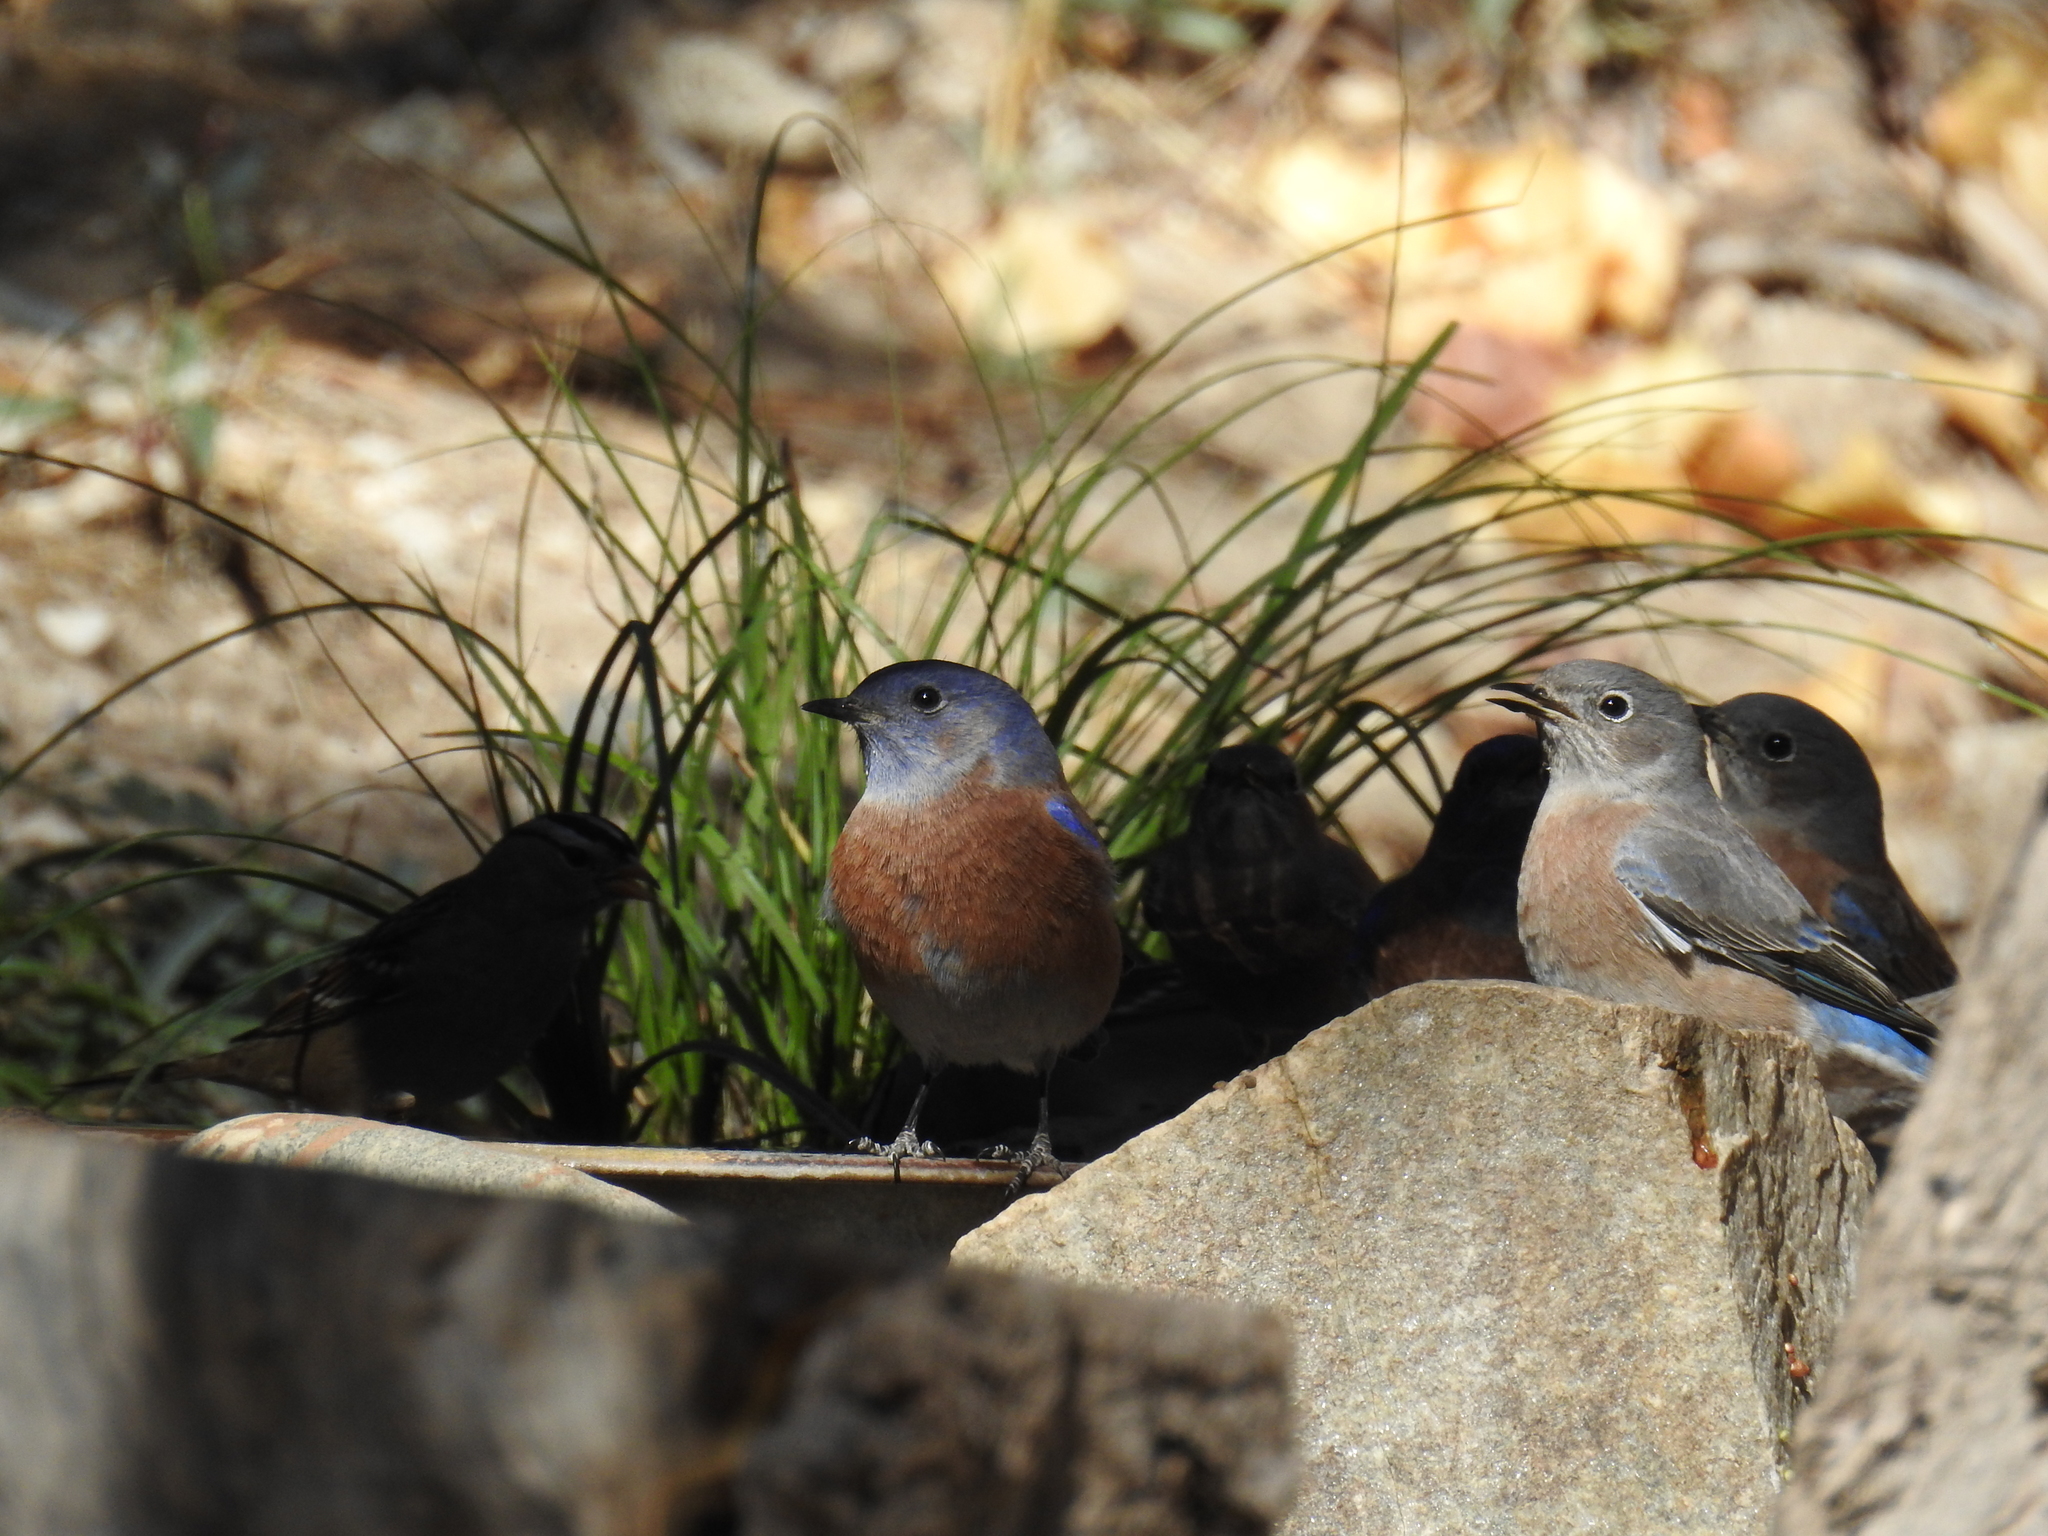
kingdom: Animalia
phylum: Chordata
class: Aves
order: Passeriformes
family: Turdidae
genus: Sialia
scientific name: Sialia mexicana
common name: Western bluebird
